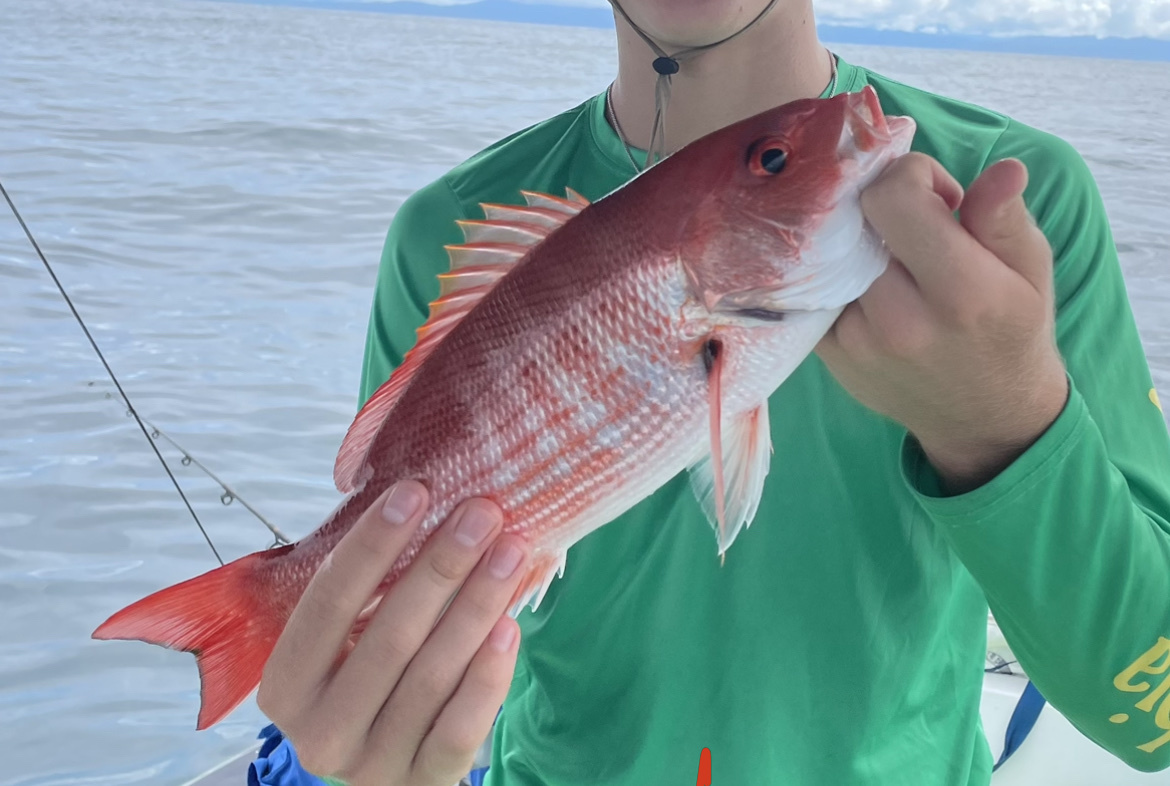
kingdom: Animalia
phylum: Chordata
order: Perciformes
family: Lutjanidae
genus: Lutjanus
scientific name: Lutjanus peru
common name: Pacific red snapper
